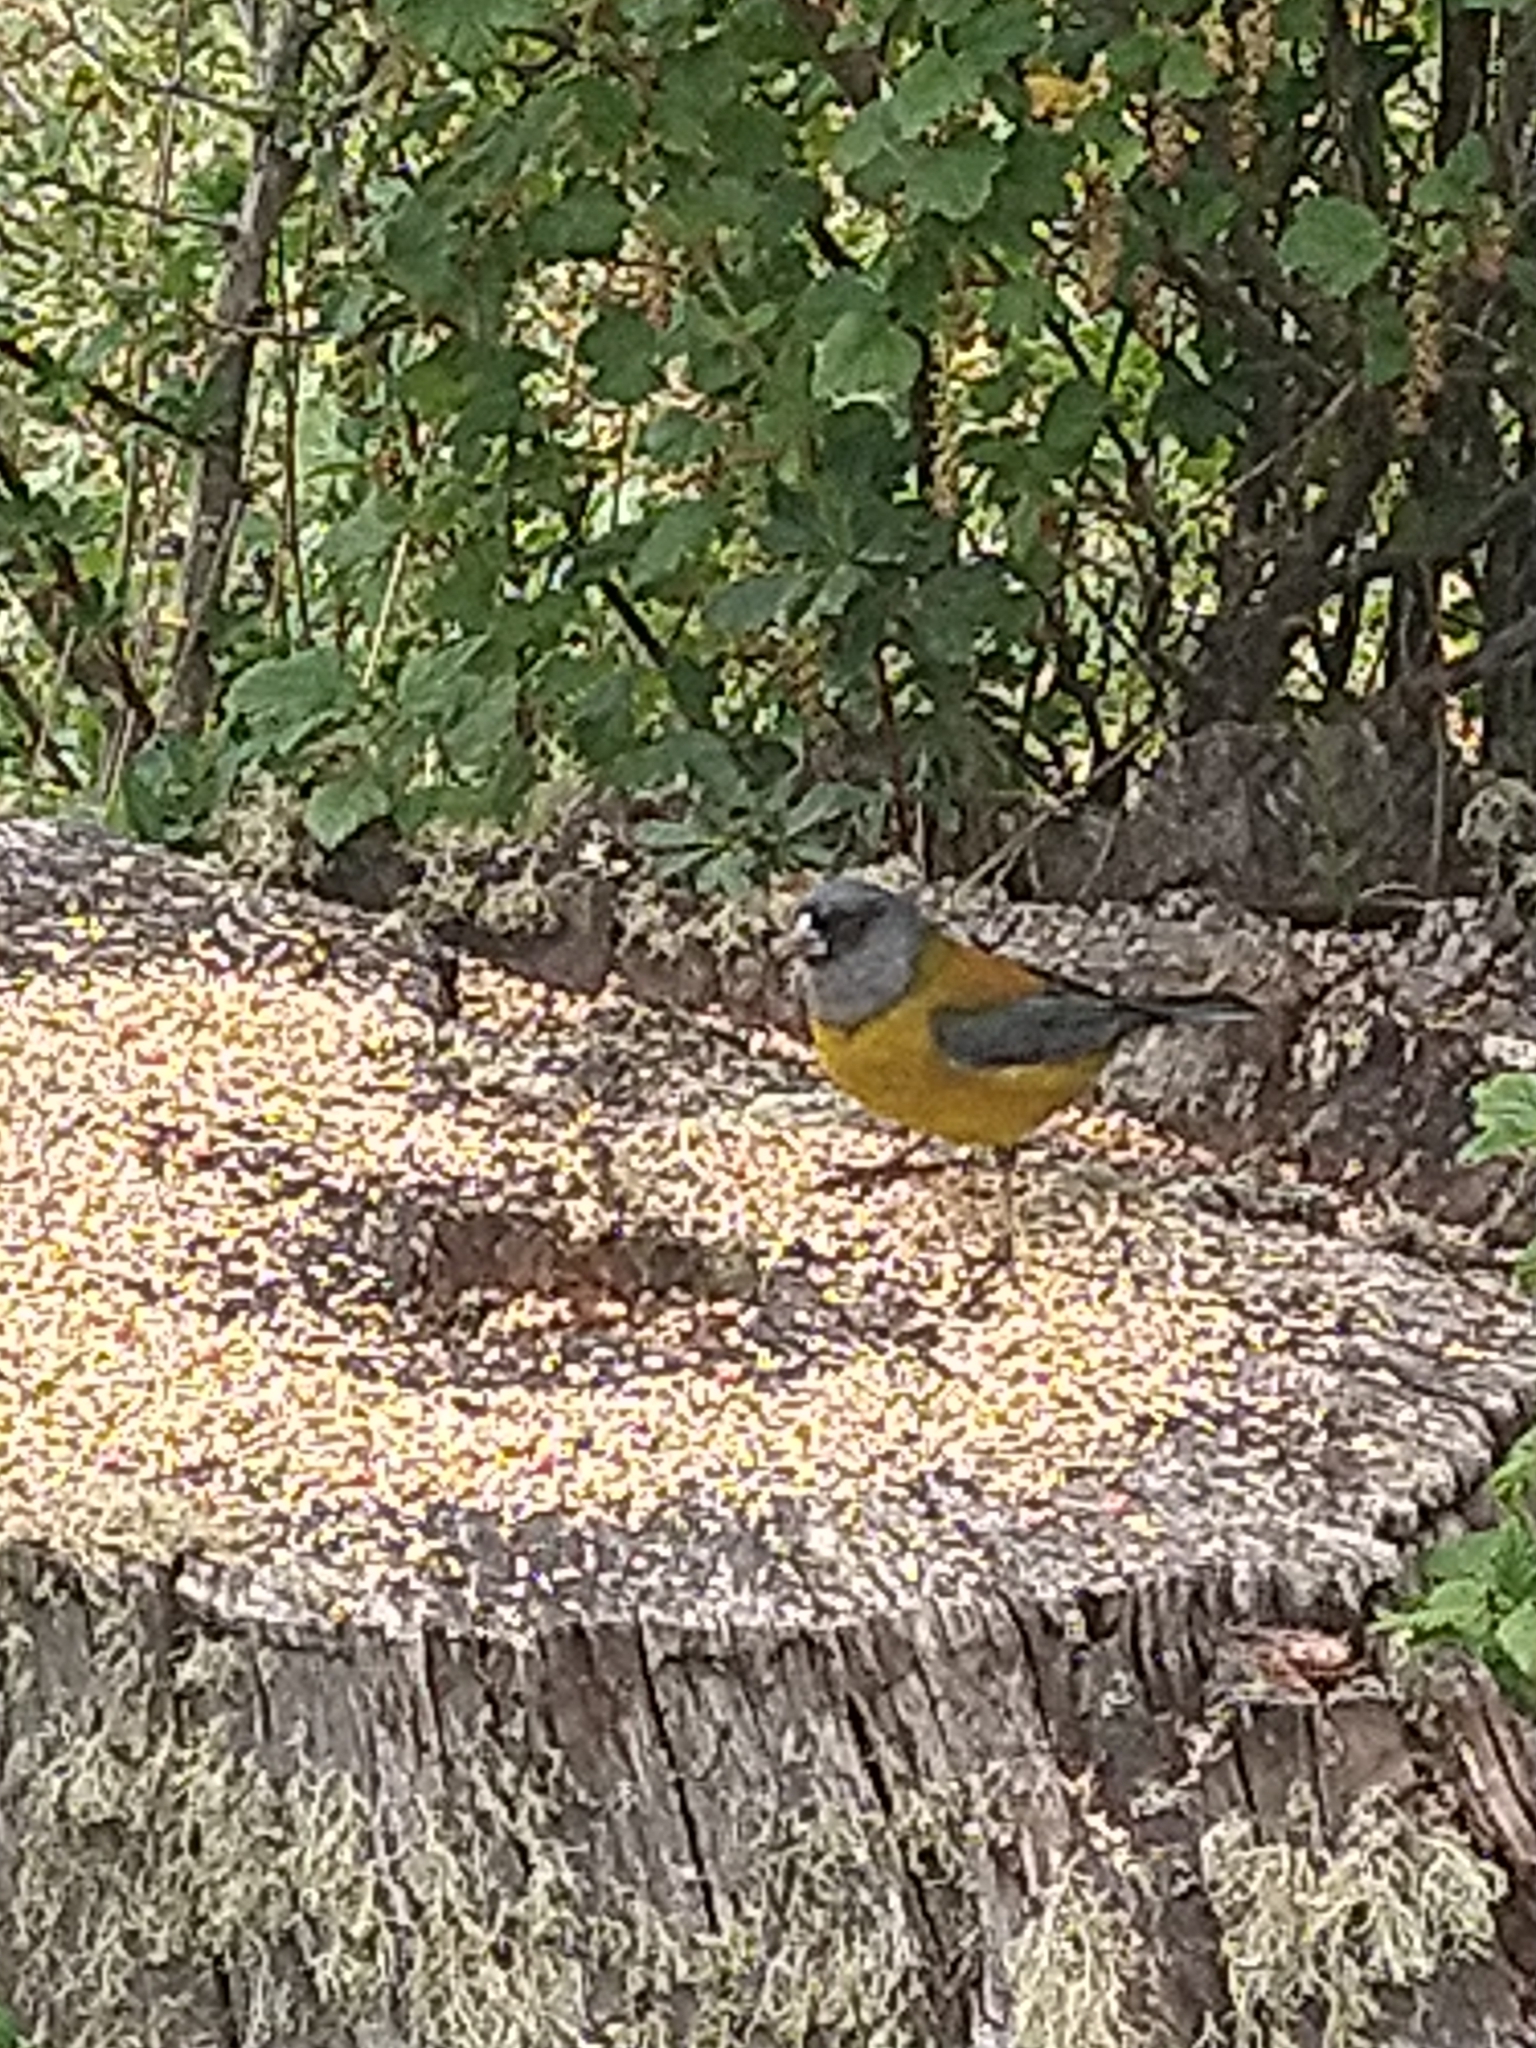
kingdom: Animalia
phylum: Chordata
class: Aves
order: Passeriformes
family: Thraupidae
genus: Phrygilus
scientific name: Phrygilus patagonicus
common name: Patagonian sierra finch
